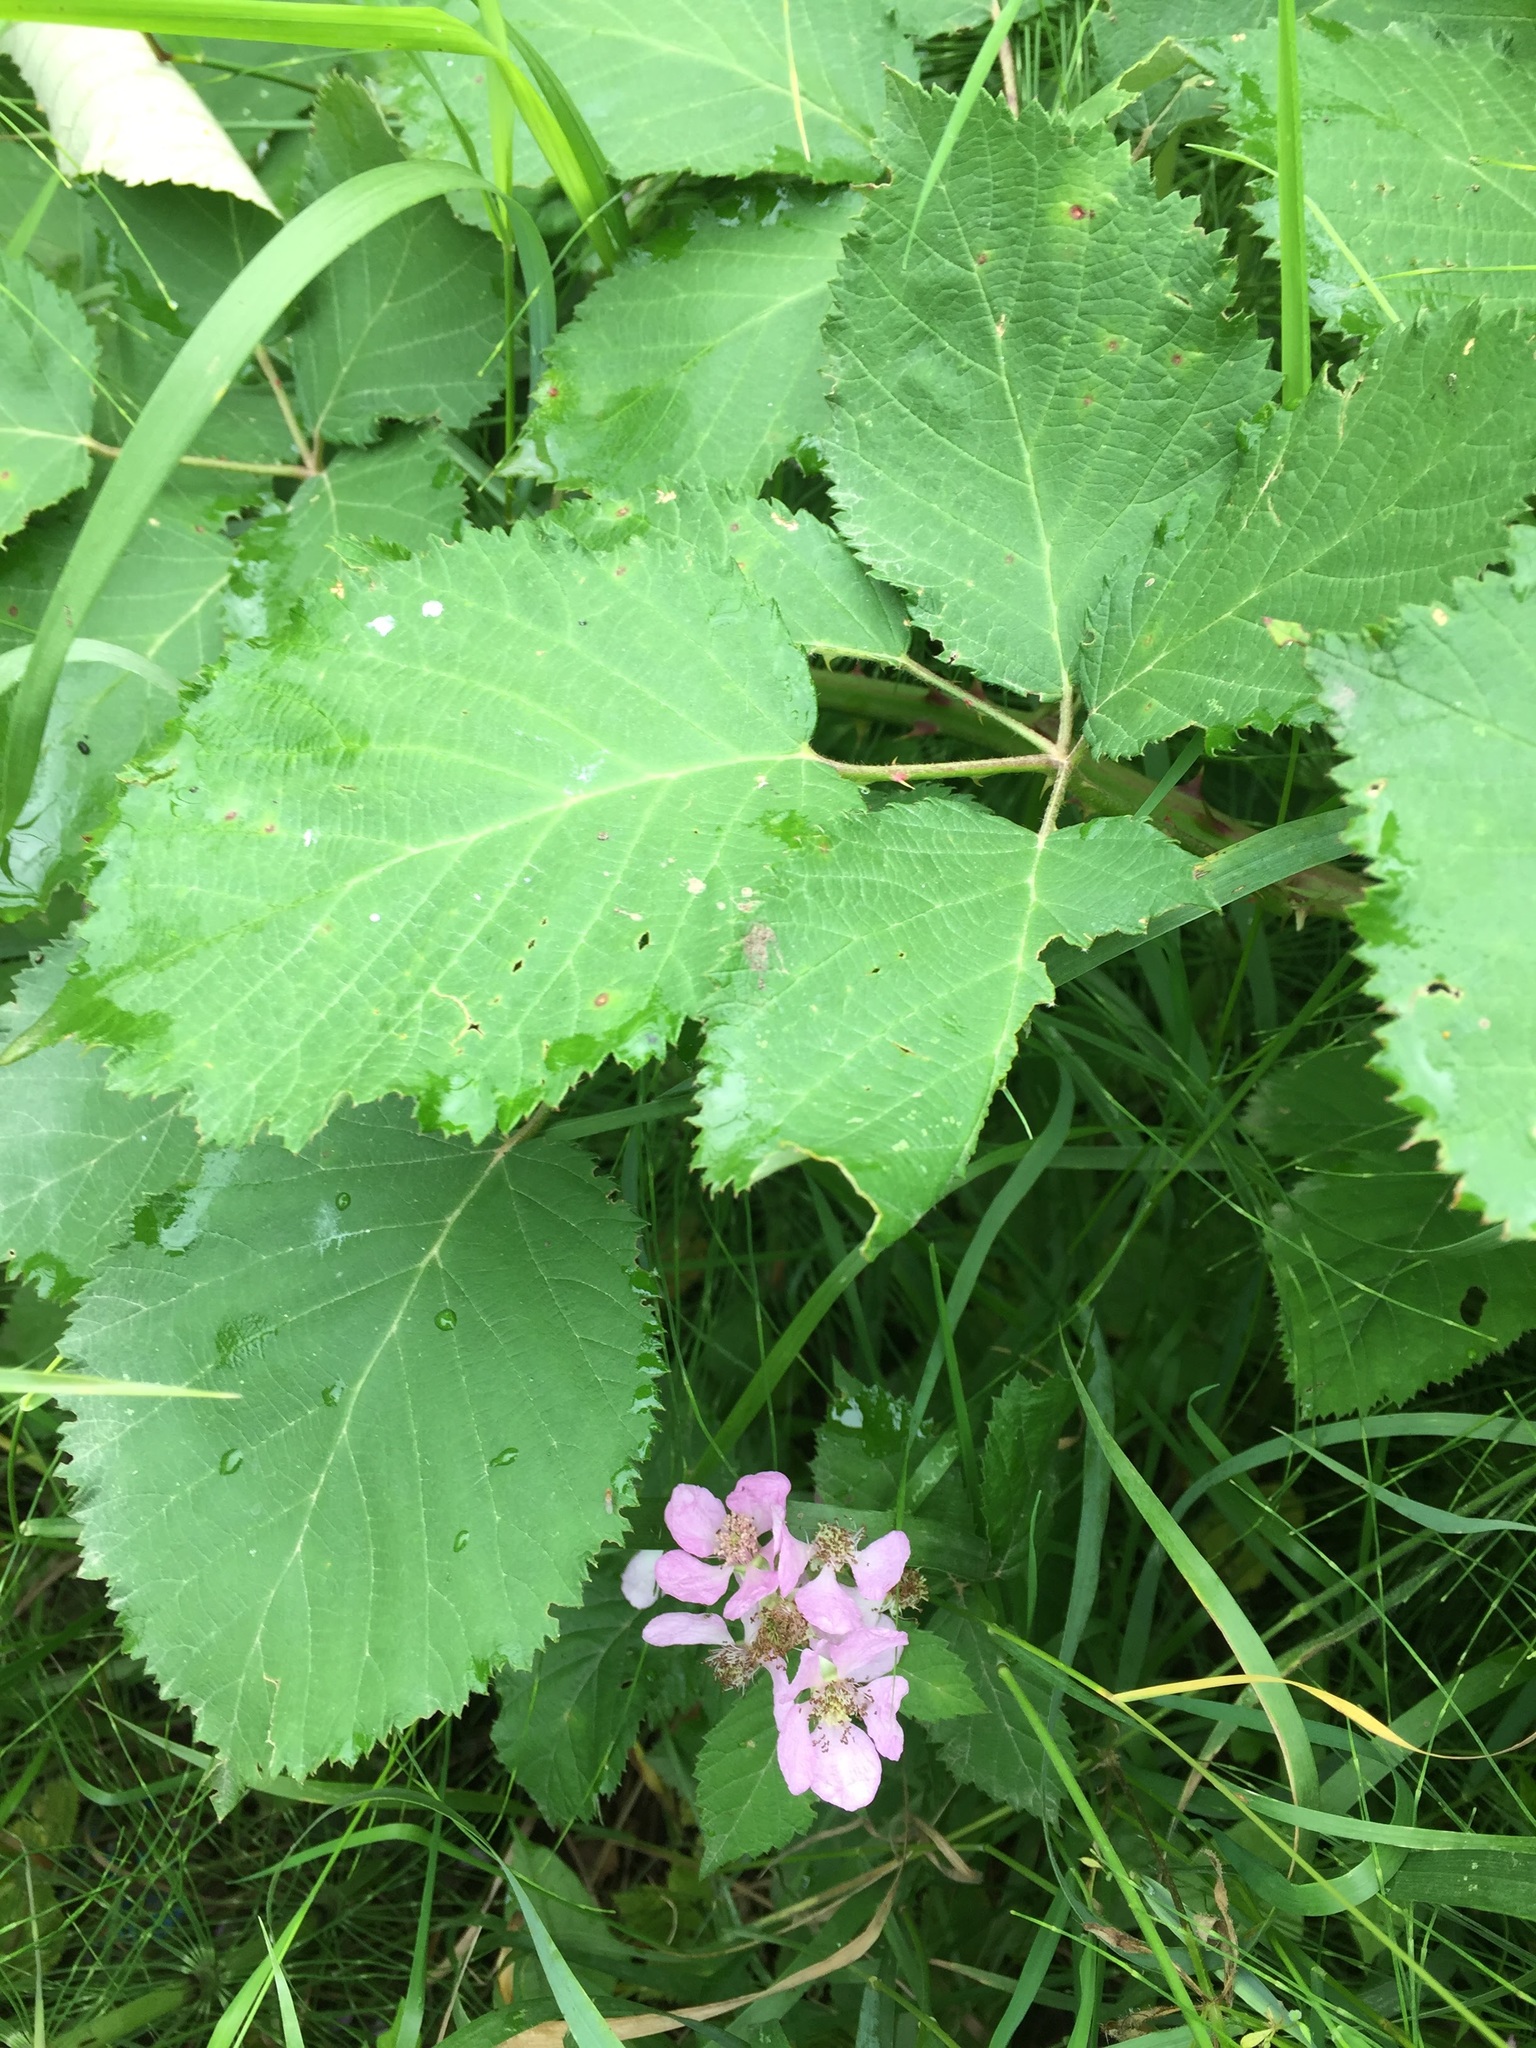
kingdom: Plantae
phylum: Tracheophyta
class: Magnoliopsida
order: Rosales
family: Rosaceae
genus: Rubus
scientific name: Rubus armeniacus
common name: Himalayan blackberry
